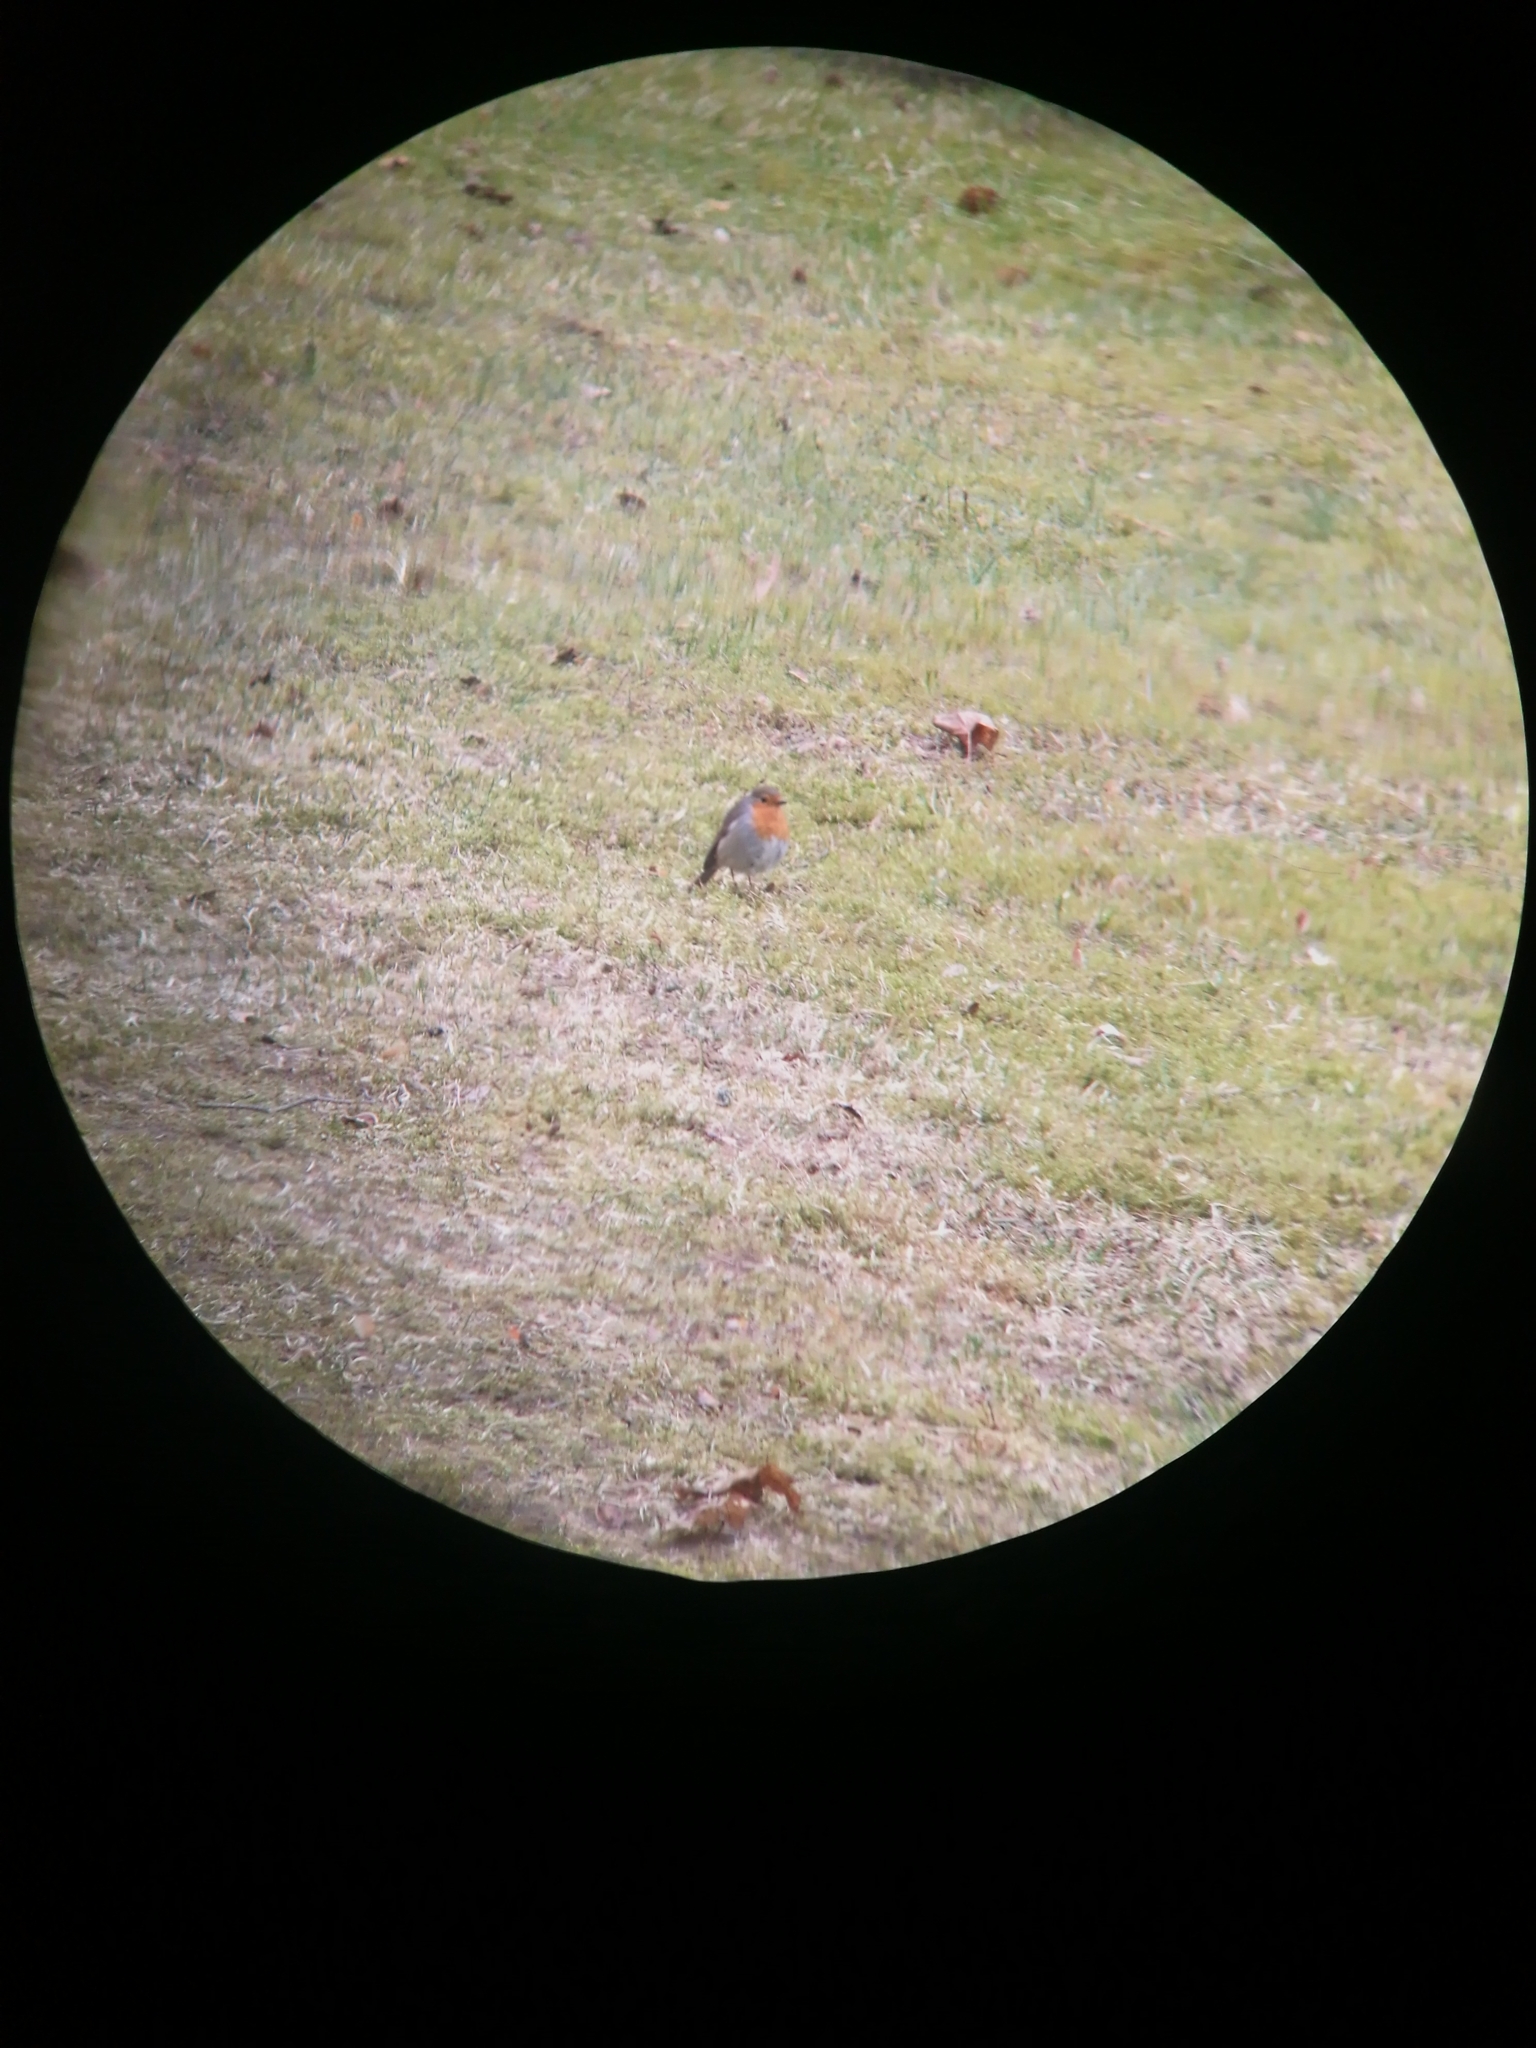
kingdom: Animalia
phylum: Chordata
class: Aves
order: Passeriformes
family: Muscicapidae
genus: Erithacus
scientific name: Erithacus rubecula
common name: European robin
